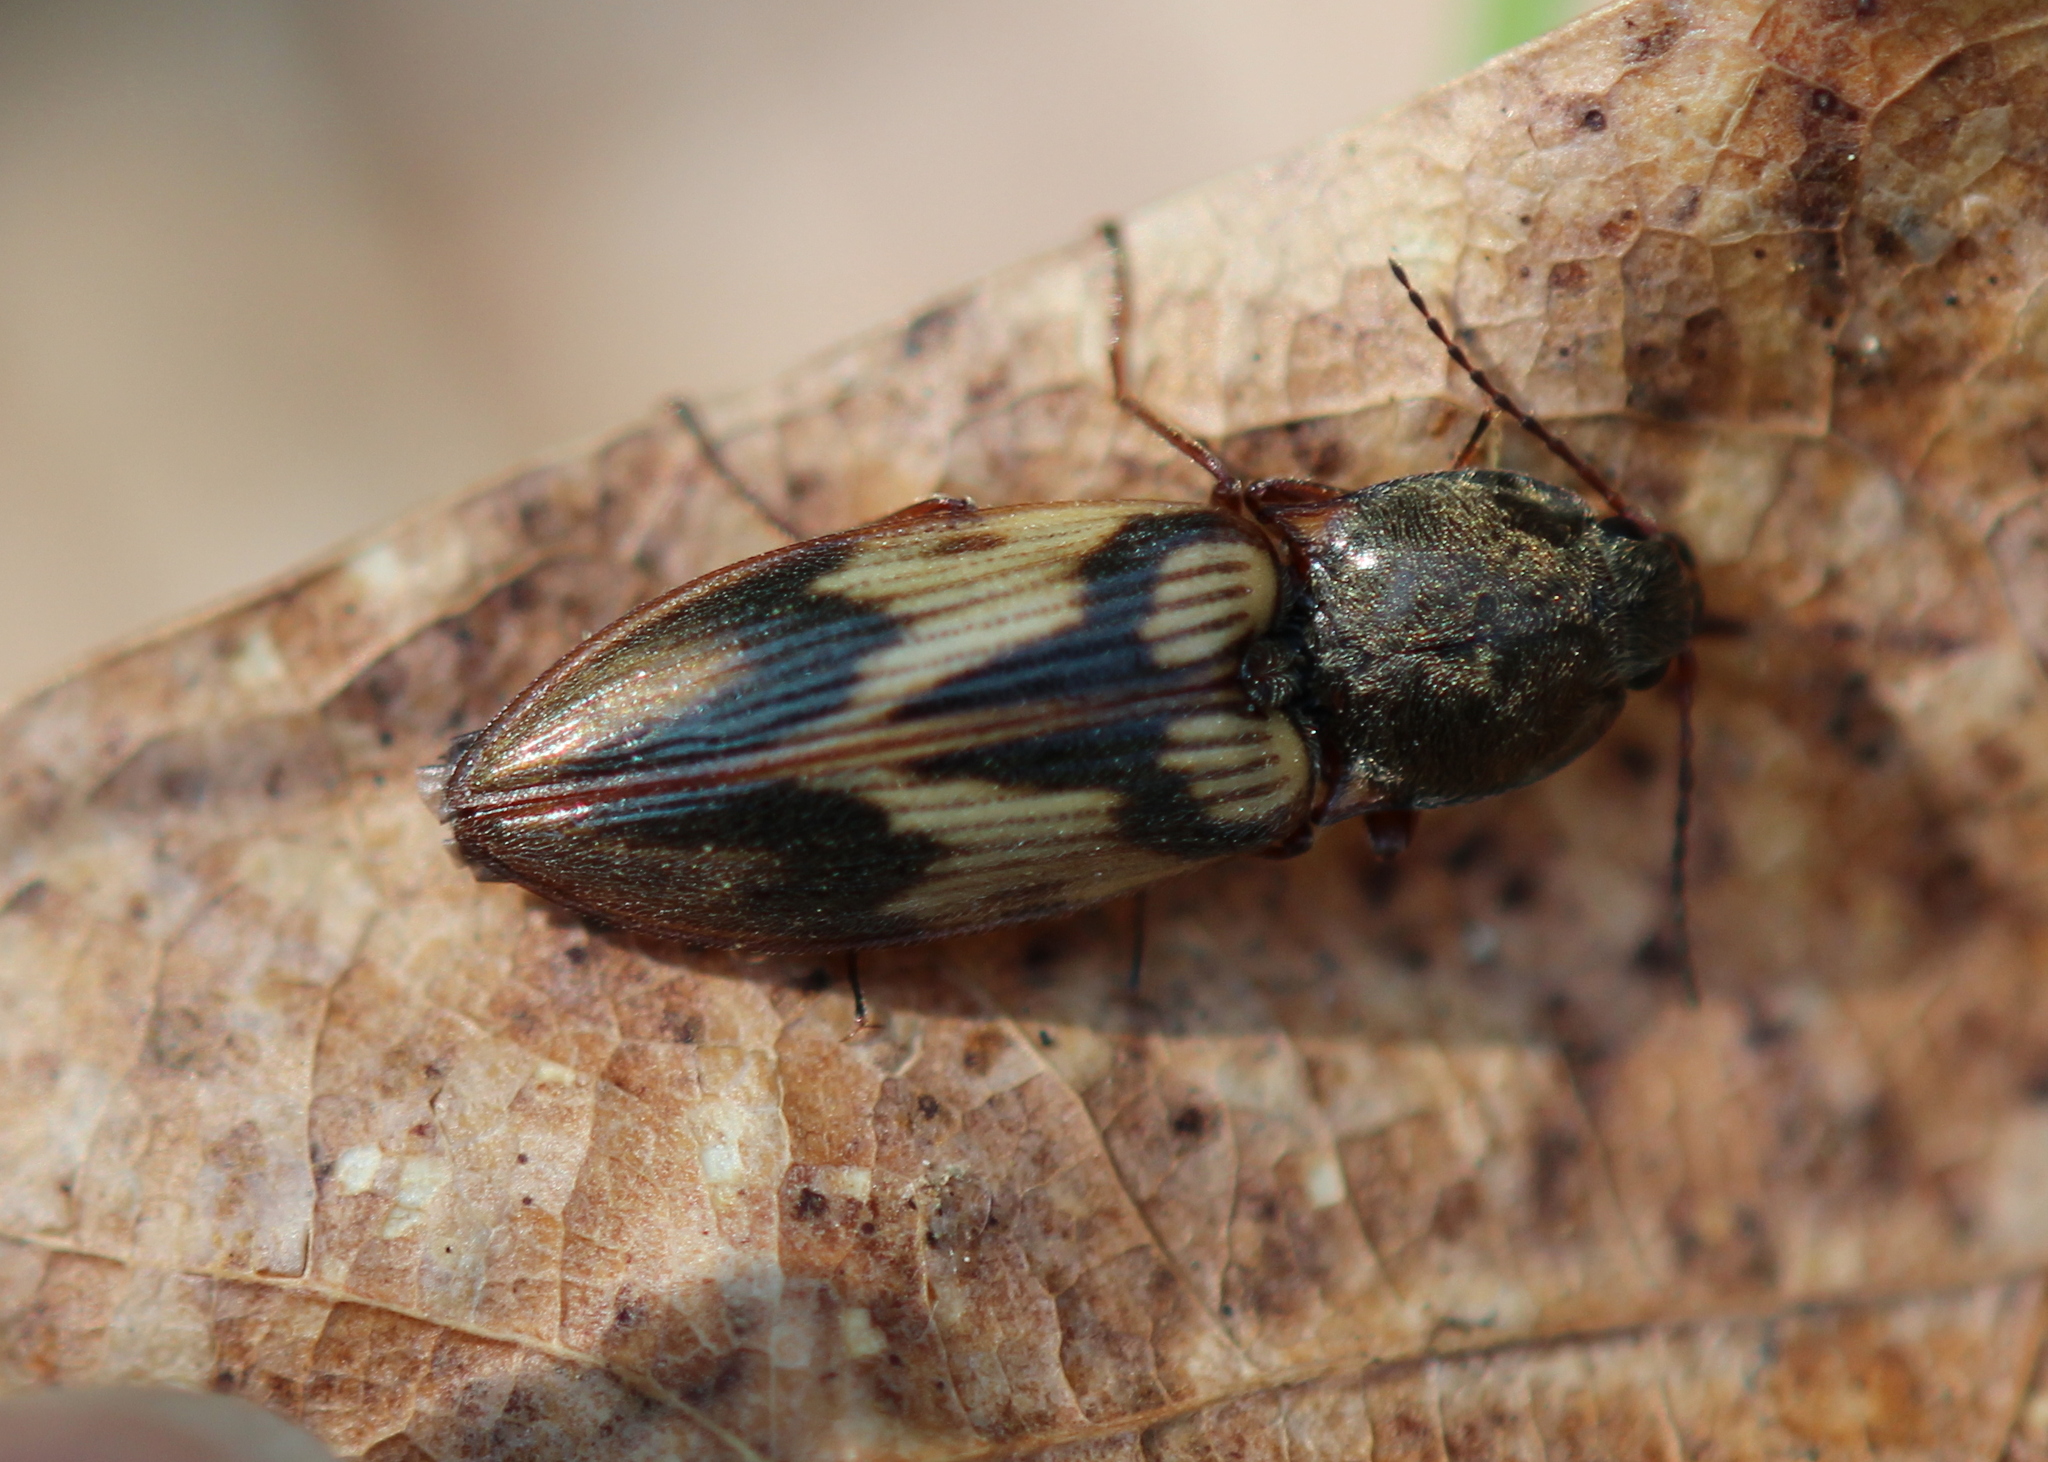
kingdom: Animalia
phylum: Arthropoda
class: Insecta
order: Coleoptera
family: Elateridae
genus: Stropenron
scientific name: Stropenron hieroglyphica
